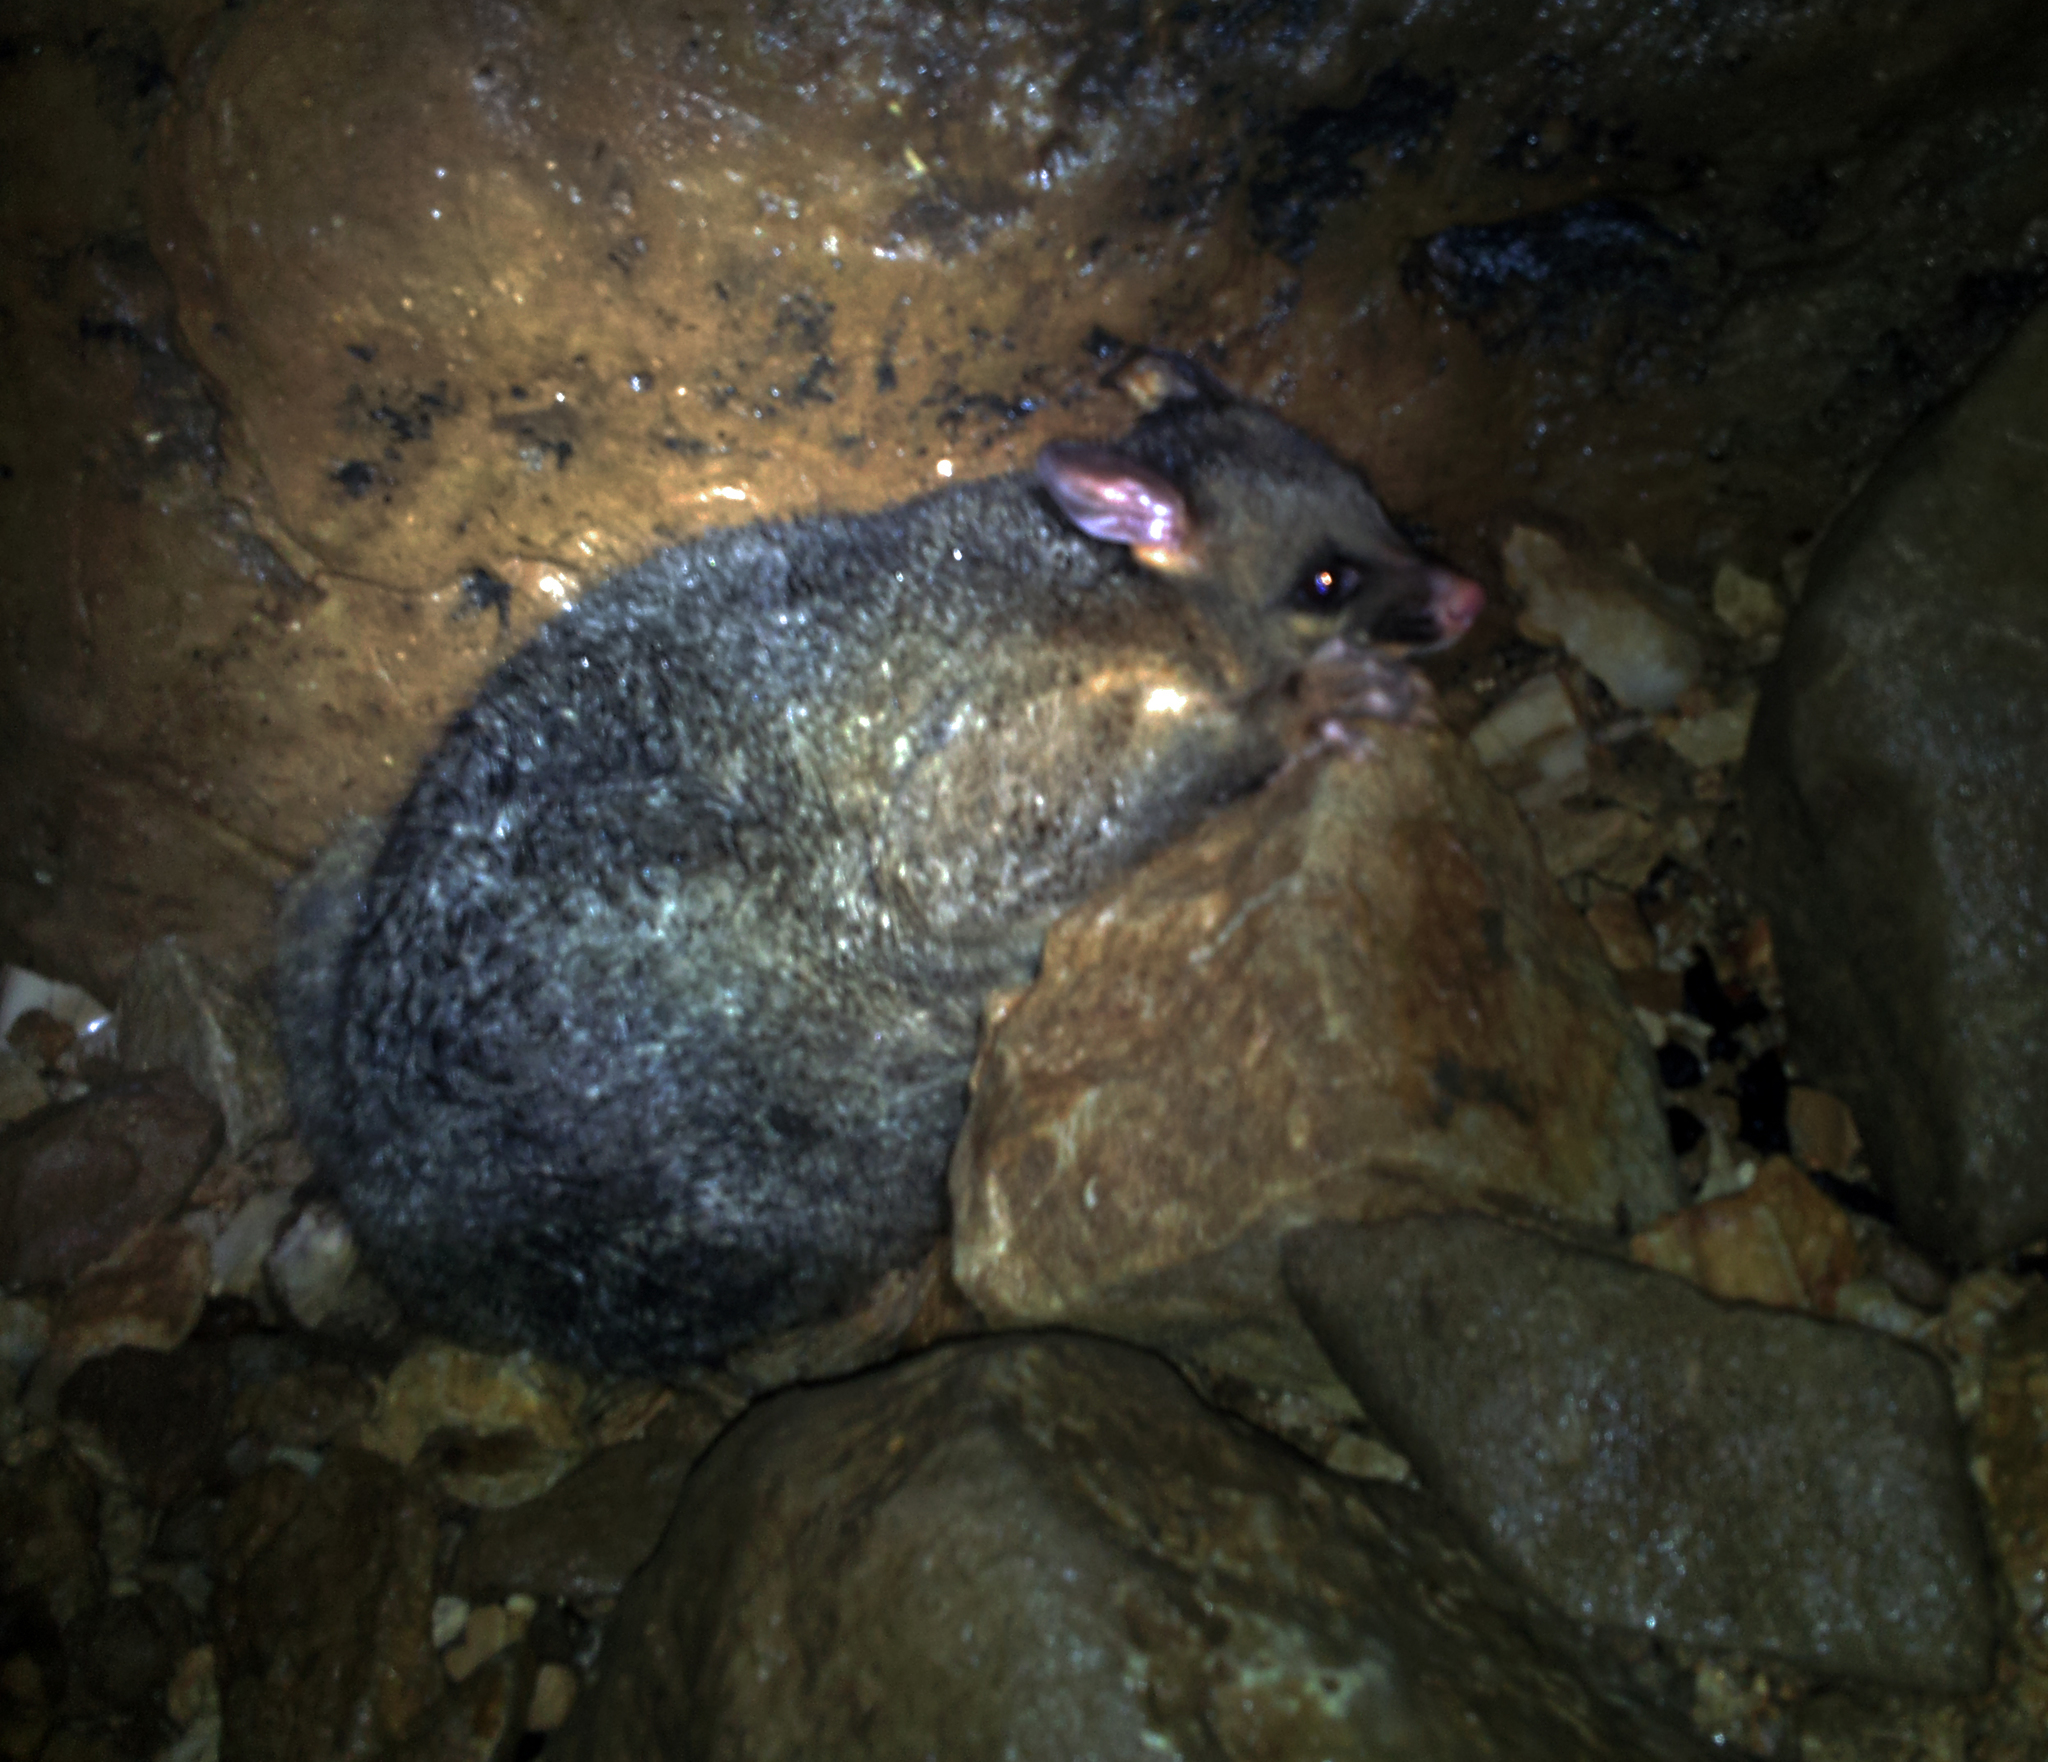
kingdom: Animalia
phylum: Chordata
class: Mammalia
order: Diprotodontia
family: Phalangeridae
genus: Trichosurus
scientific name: Trichosurus vulpecula
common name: Common brushtail
